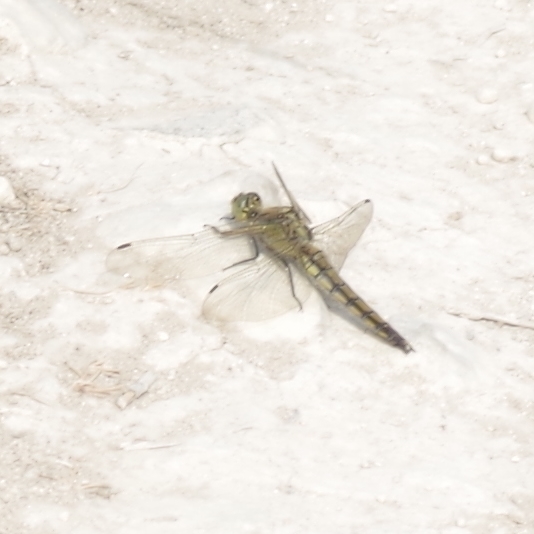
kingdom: Animalia
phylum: Arthropoda
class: Insecta
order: Odonata
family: Libellulidae
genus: Orthetrum
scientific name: Orthetrum cancellatum
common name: Black-tailed skimmer
